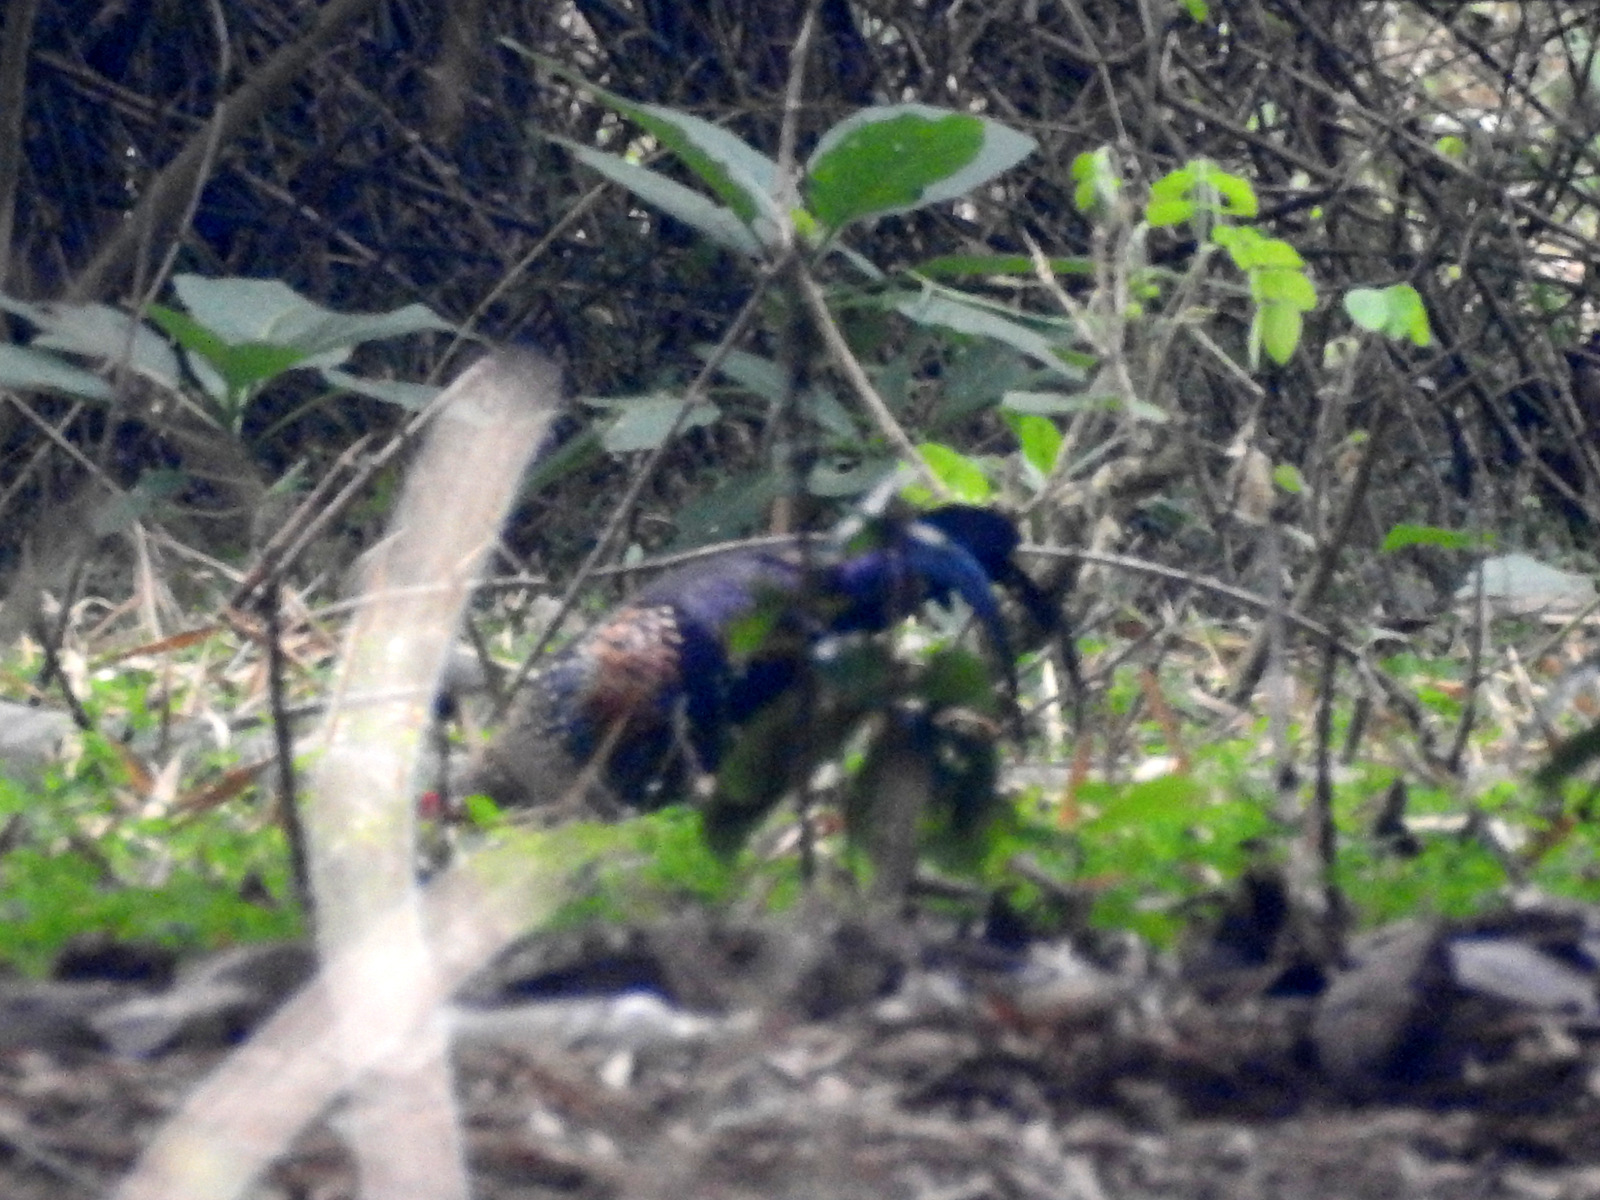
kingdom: Animalia
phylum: Chordata
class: Aves
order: Galliformes
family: Phasianidae
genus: Gallus
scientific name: Gallus sonneratii
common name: Grey junglefowl
